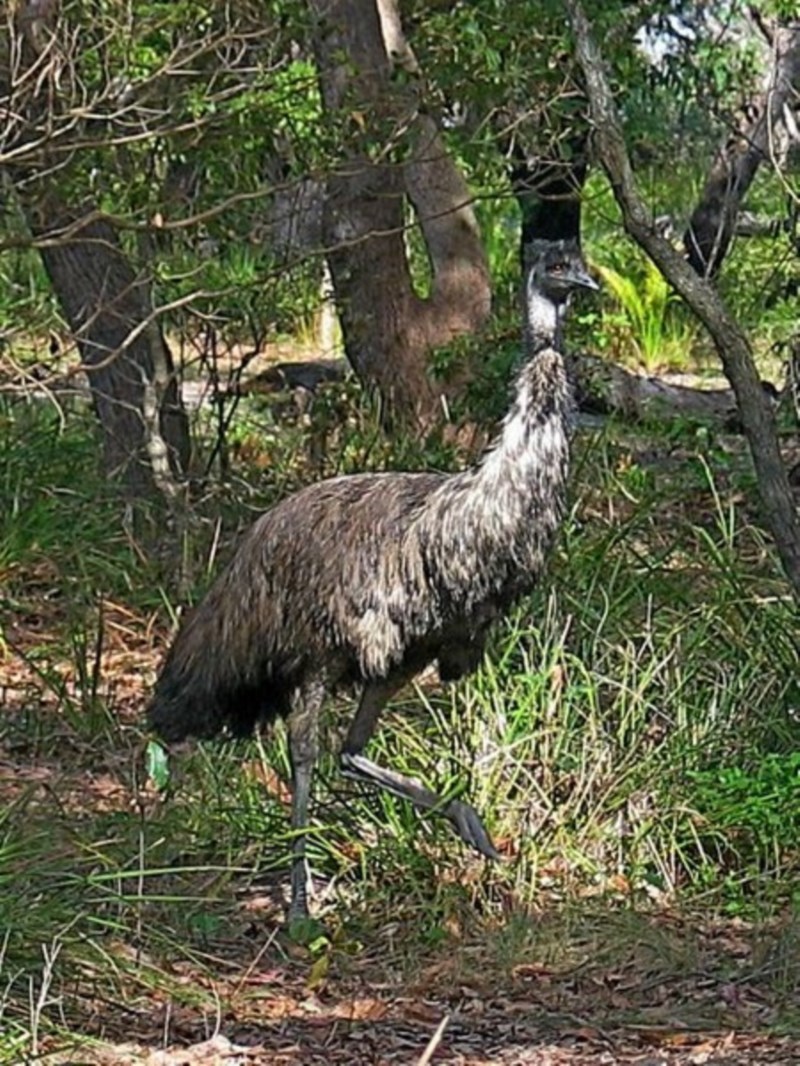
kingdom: Animalia
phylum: Chordata
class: Aves
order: Casuariiformes
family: Dromaiidae
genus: Dromaius
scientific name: Dromaius novaehollandiae
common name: Emu
